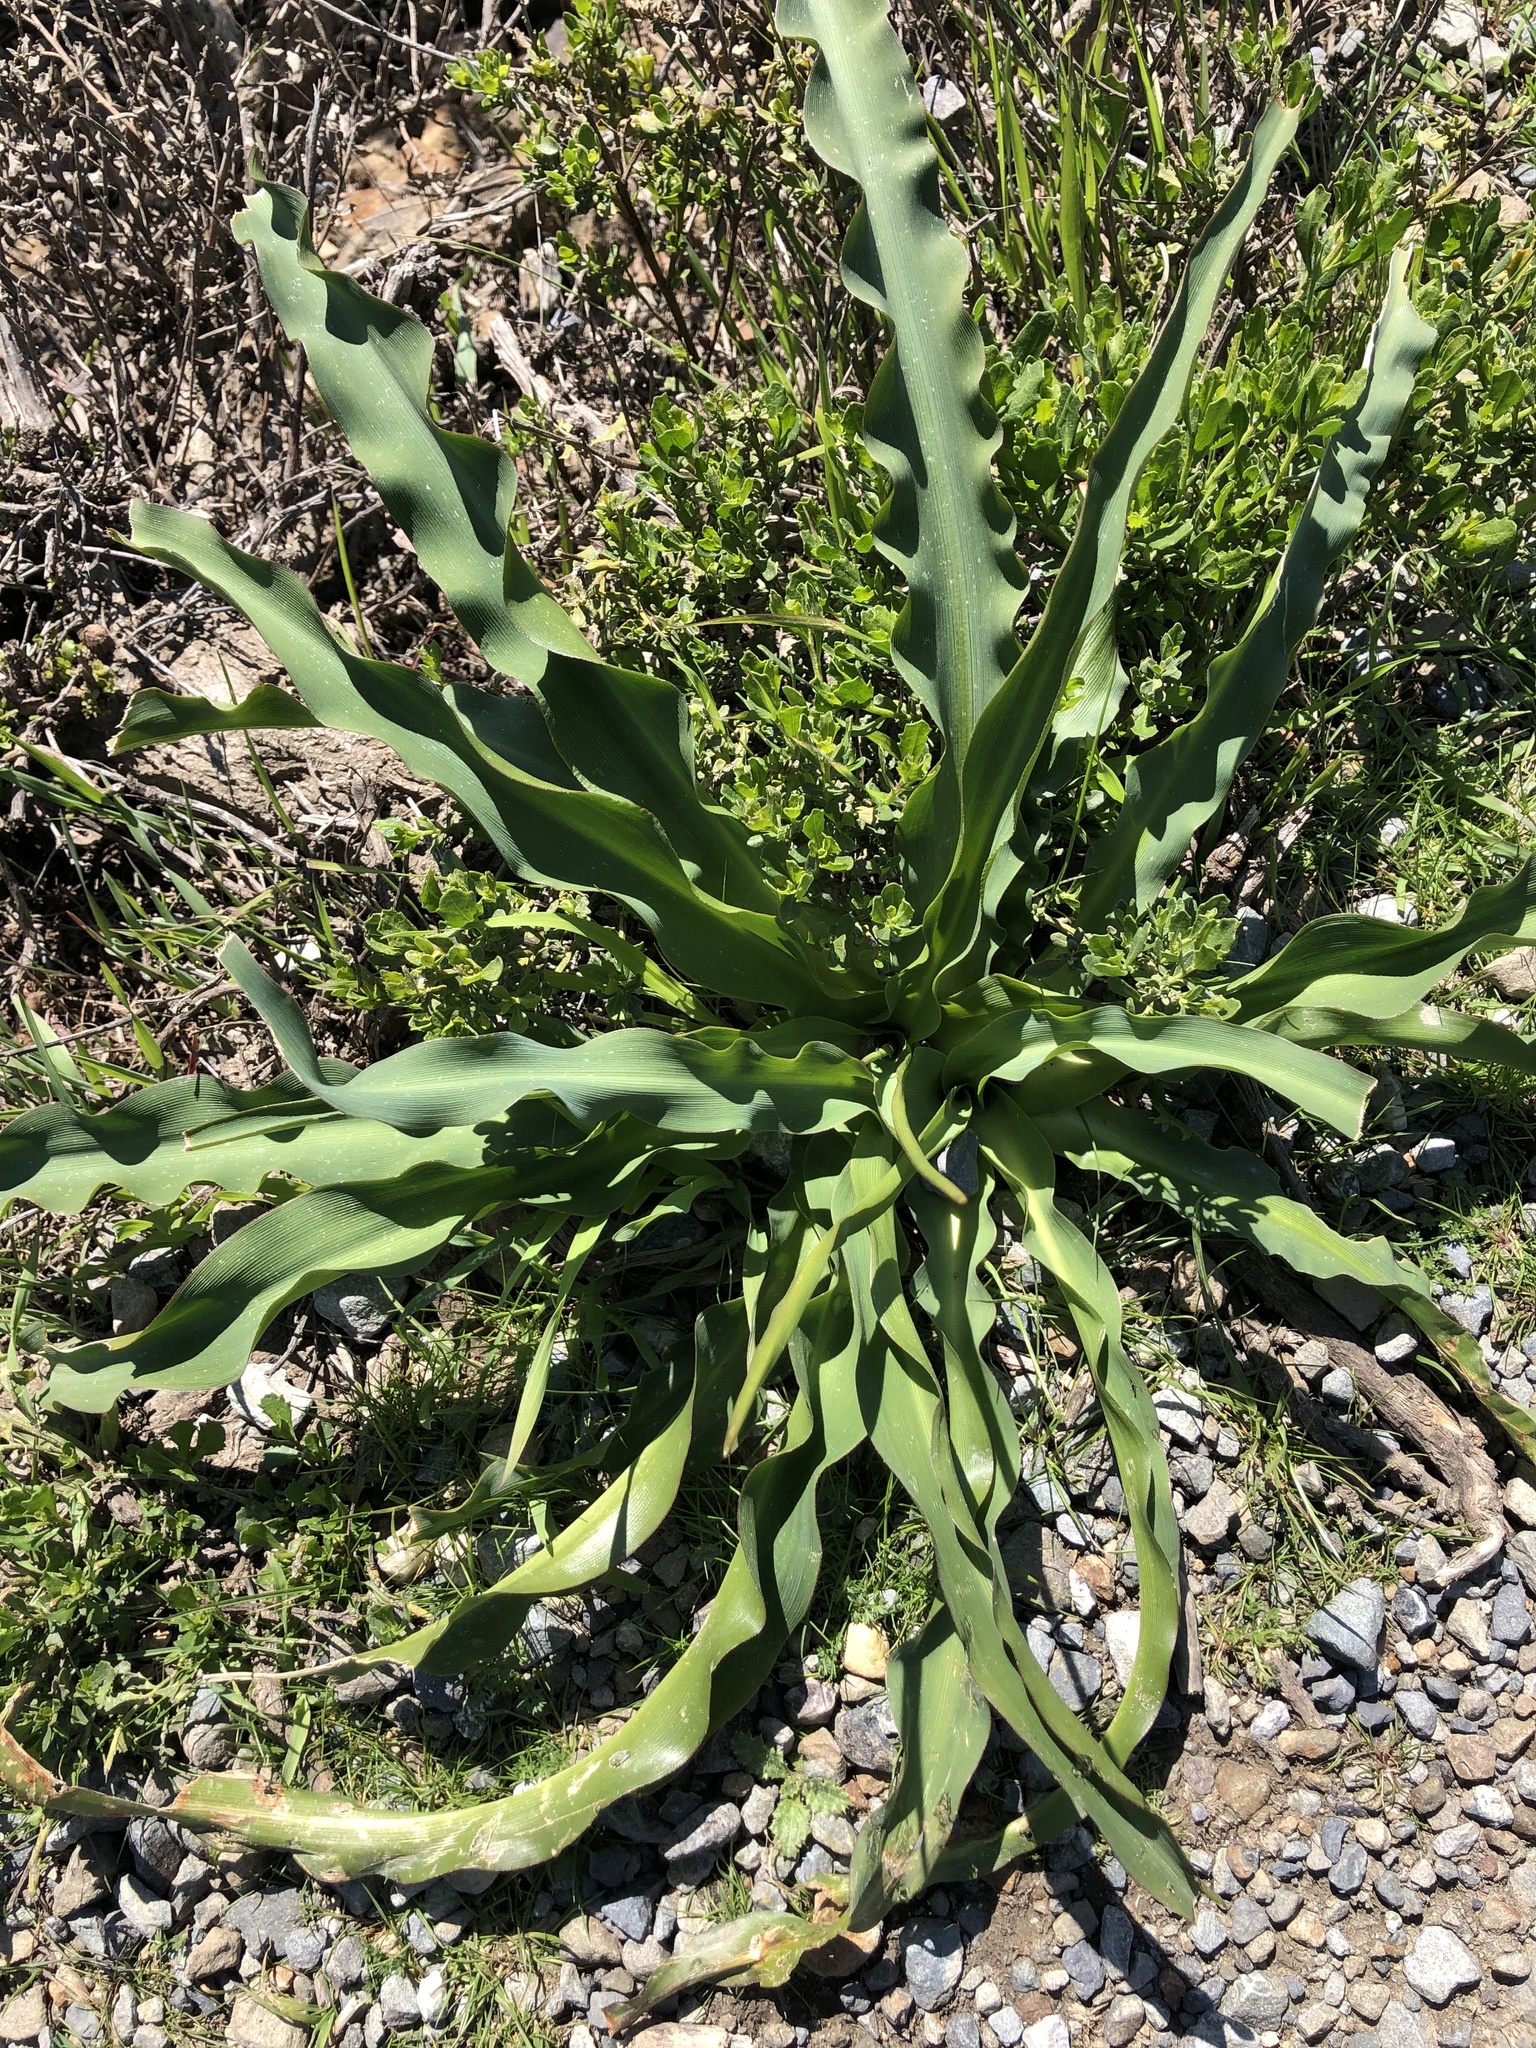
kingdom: Plantae
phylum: Tracheophyta
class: Liliopsida
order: Asparagales
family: Asparagaceae
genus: Chlorogalum
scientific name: Chlorogalum pomeridianum
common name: Amole
